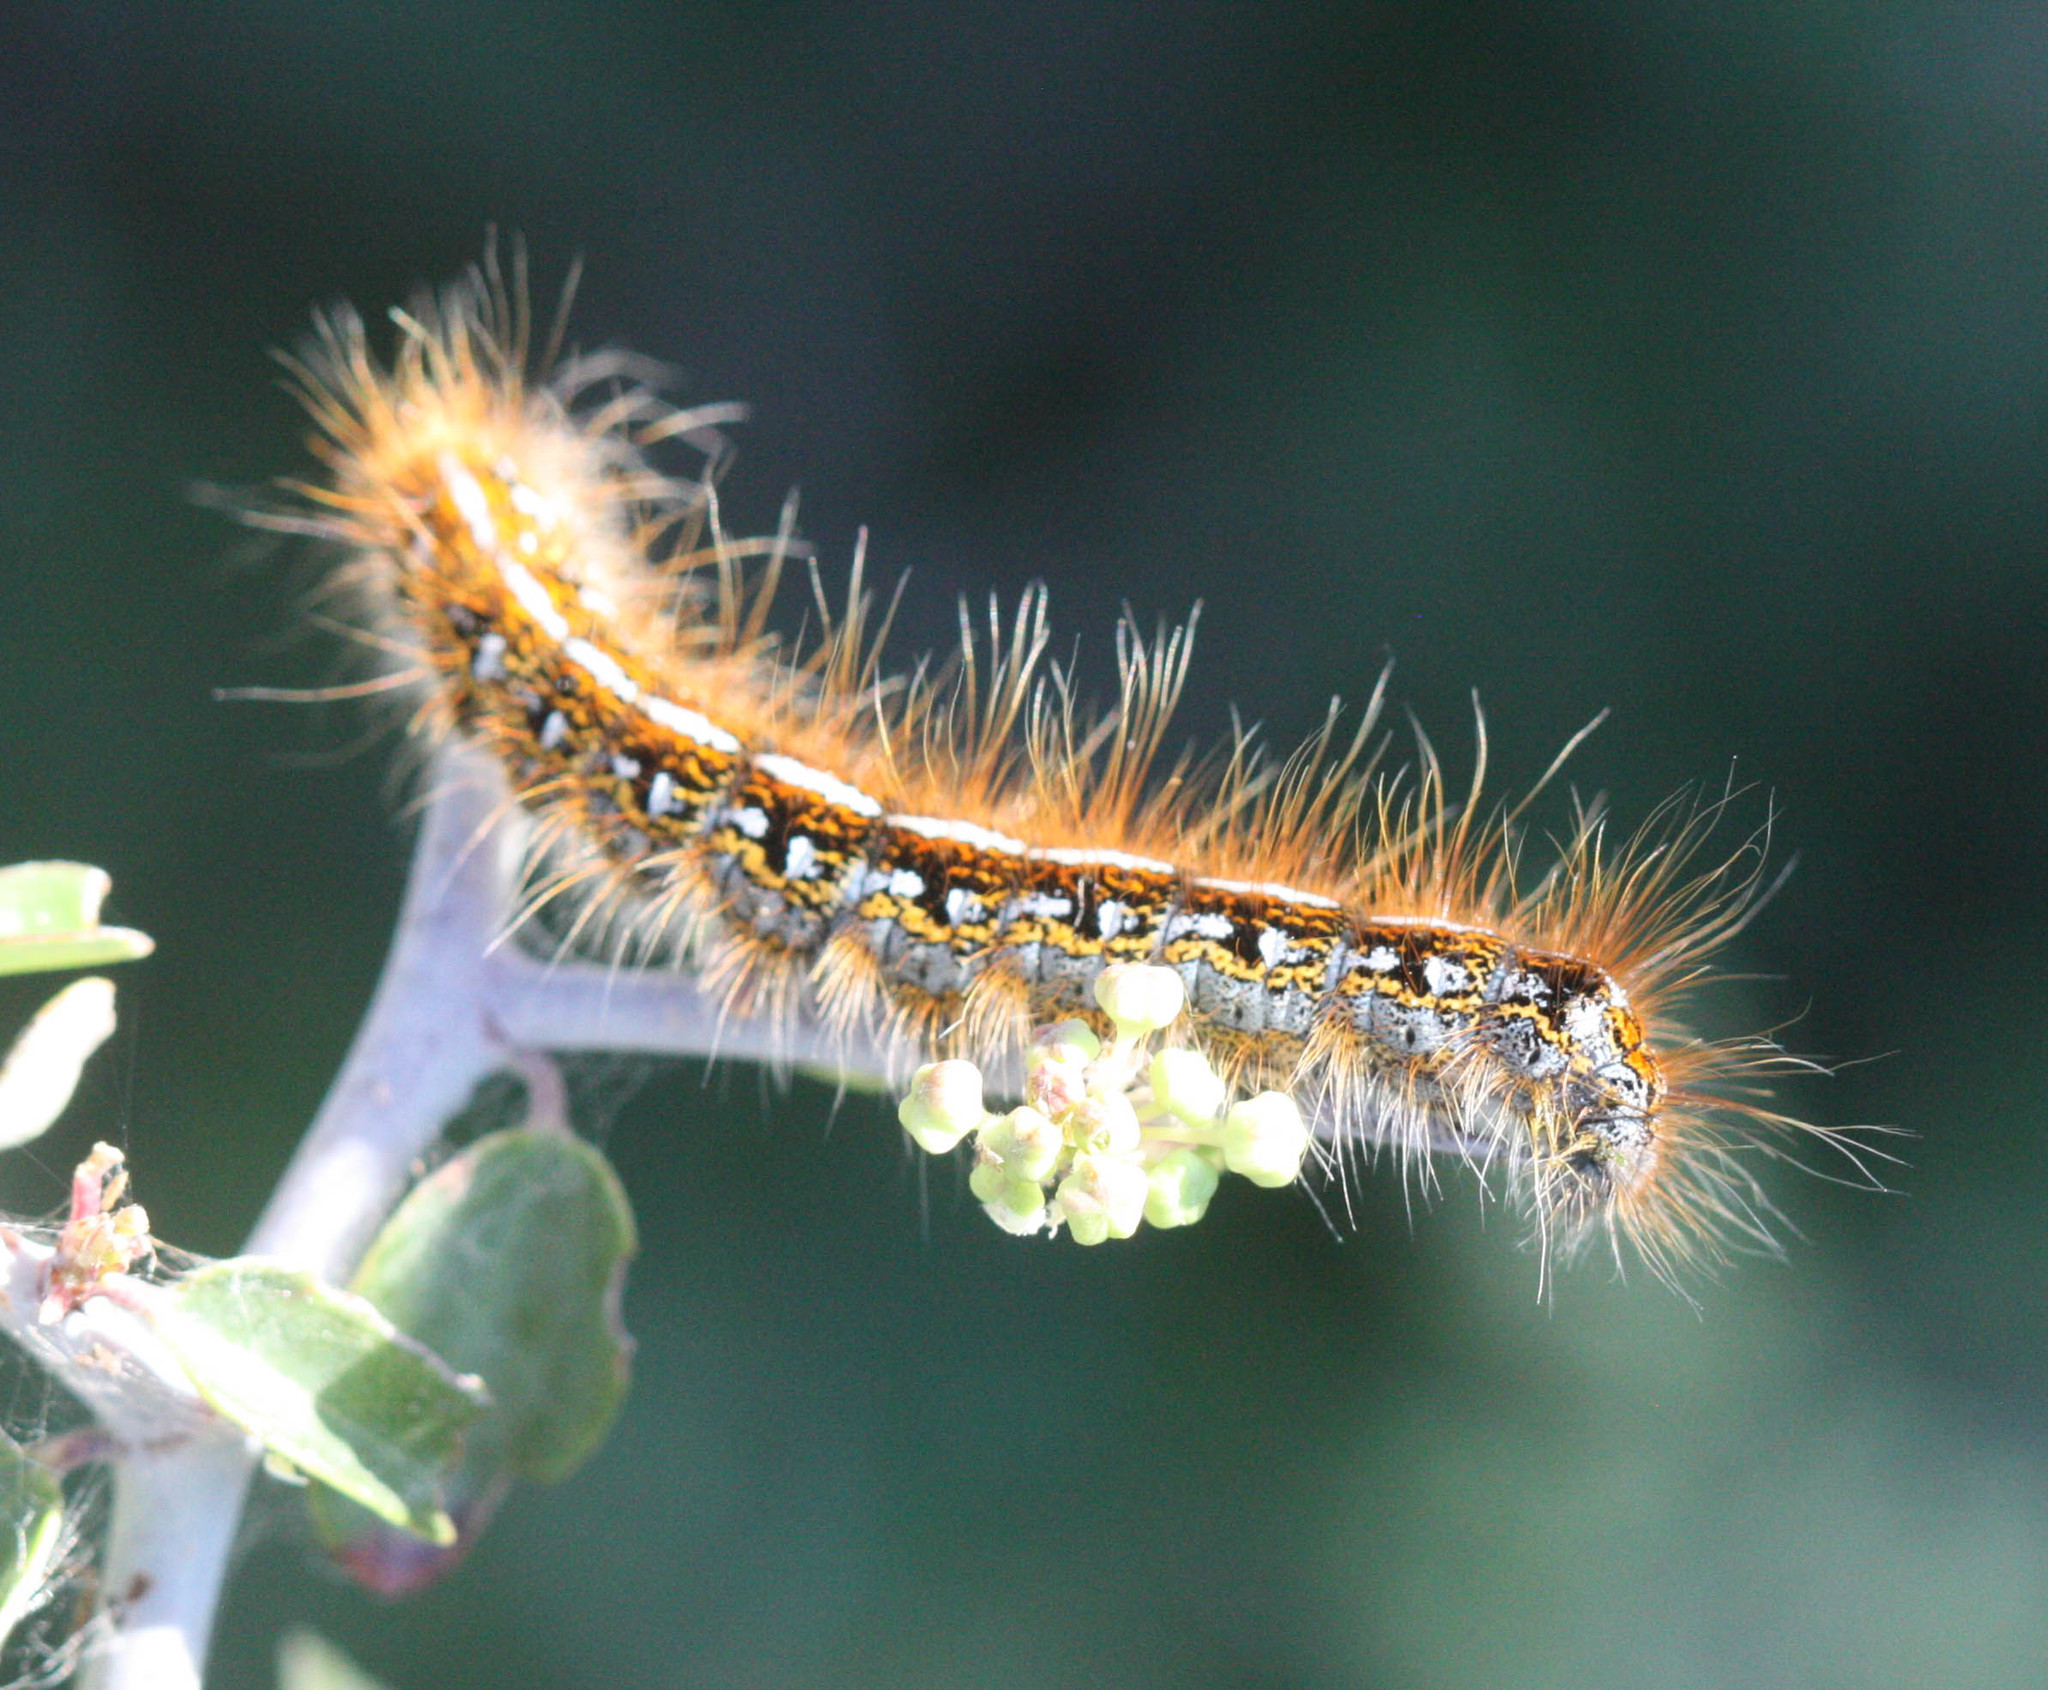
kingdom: Animalia
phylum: Arthropoda
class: Insecta
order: Lepidoptera
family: Lasiocampidae
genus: Malacosoma
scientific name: Malacosoma californica
